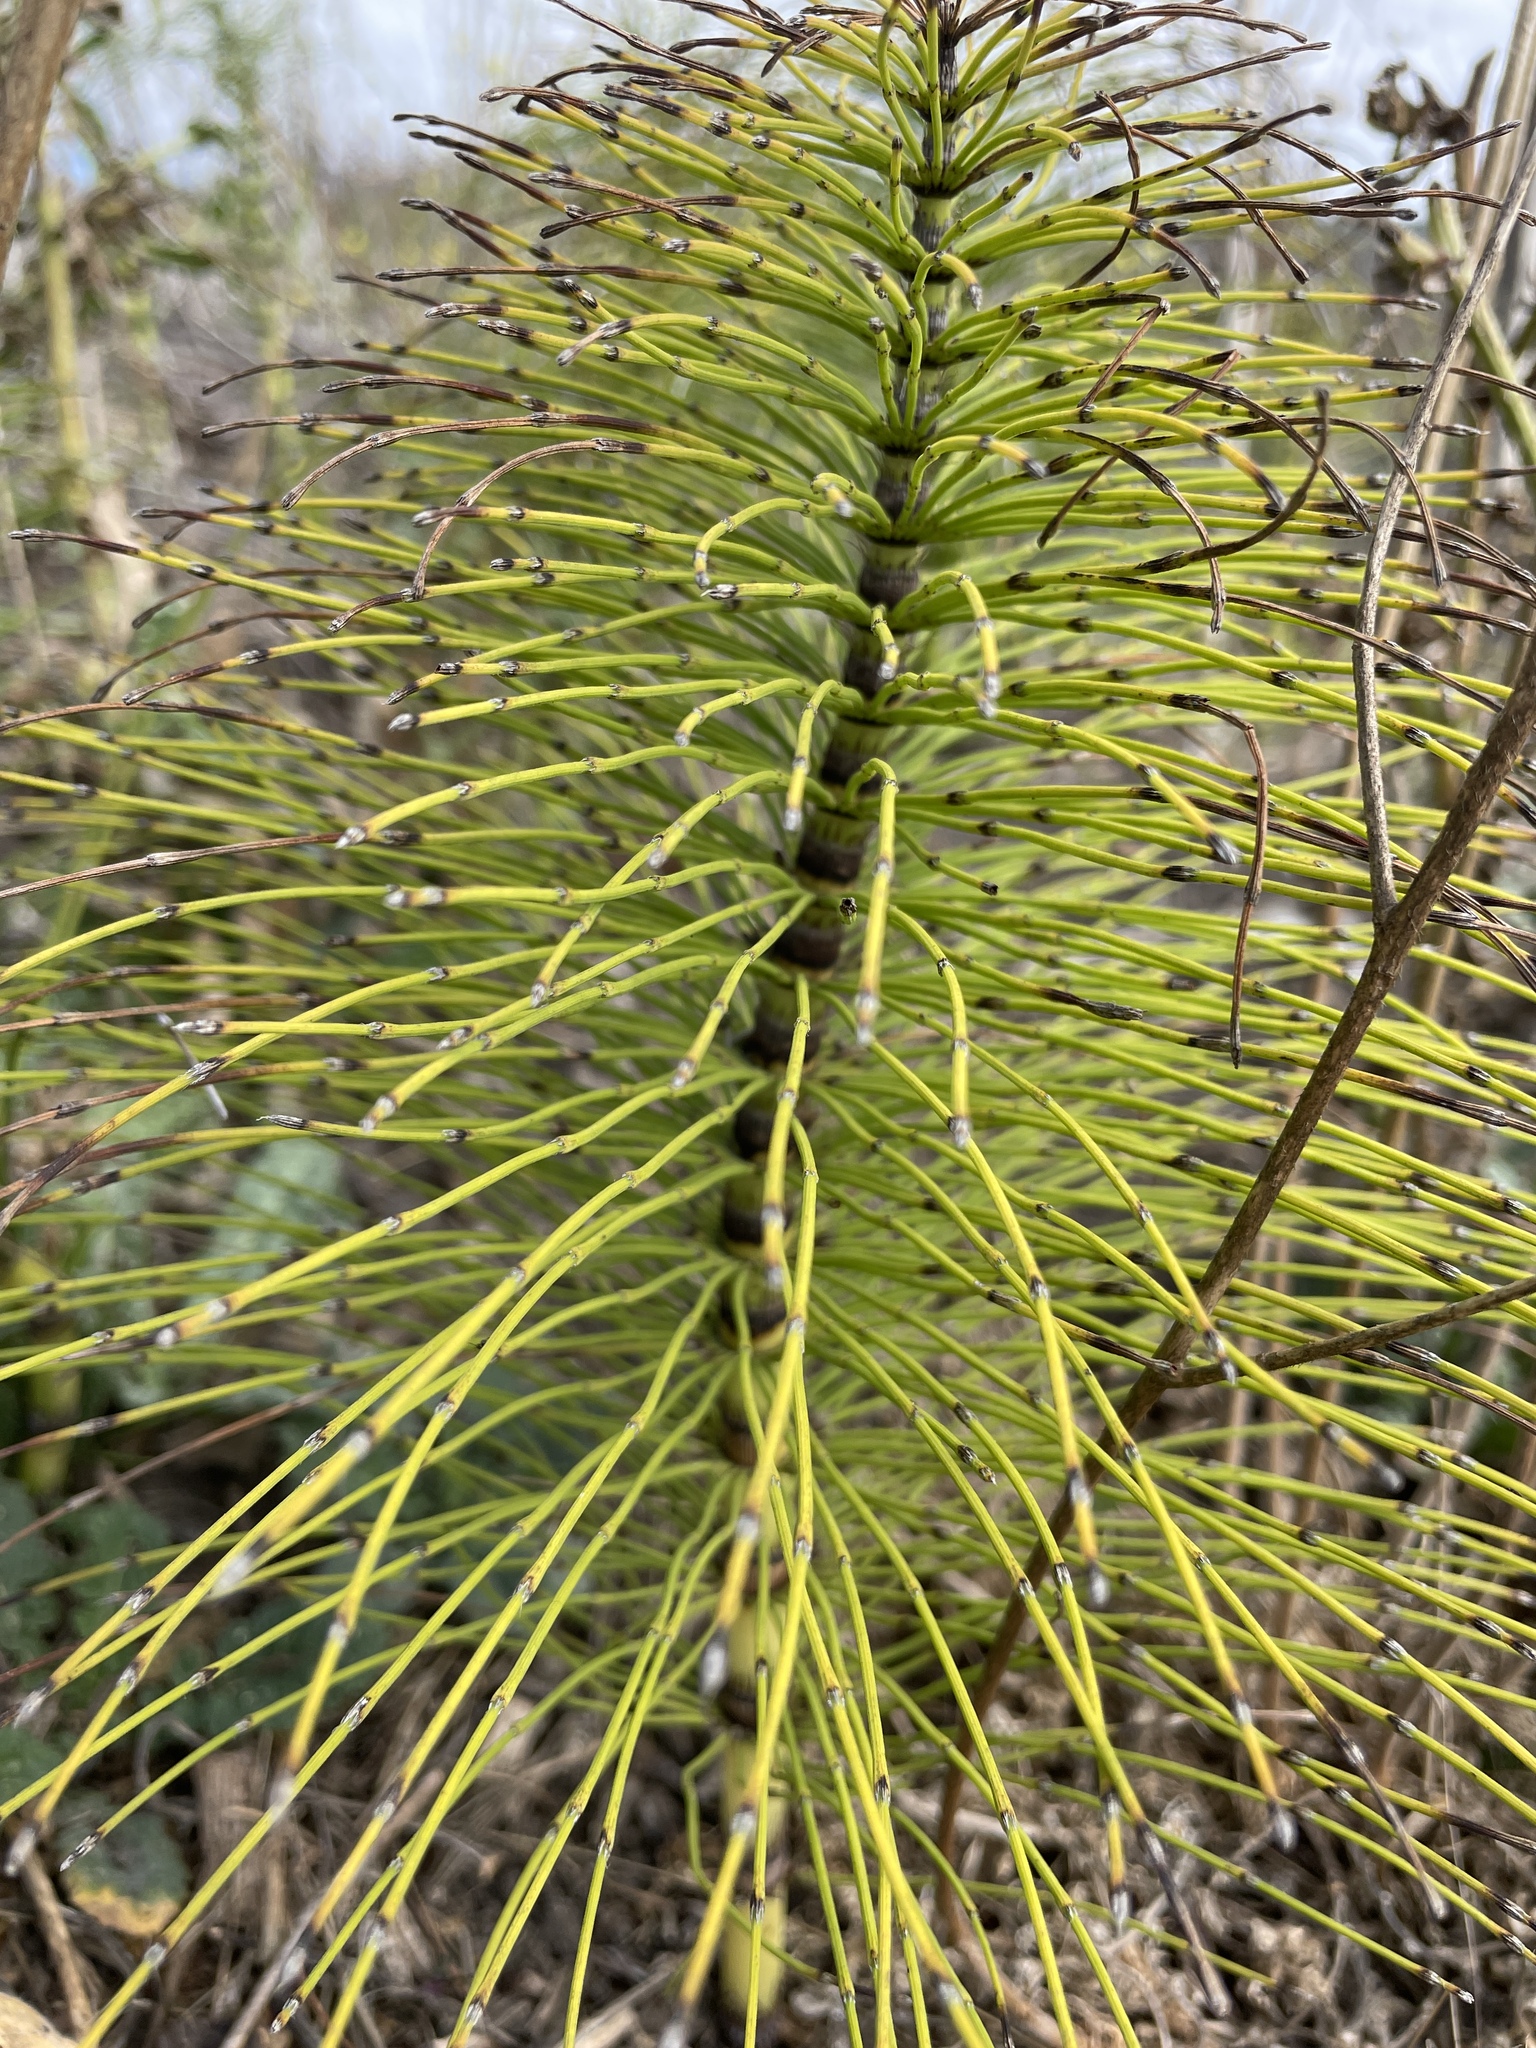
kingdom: Plantae
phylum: Tracheophyta
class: Polypodiopsida
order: Equisetales
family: Equisetaceae
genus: Equisetum
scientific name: Equisetum braunii
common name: Braun's horsetail
